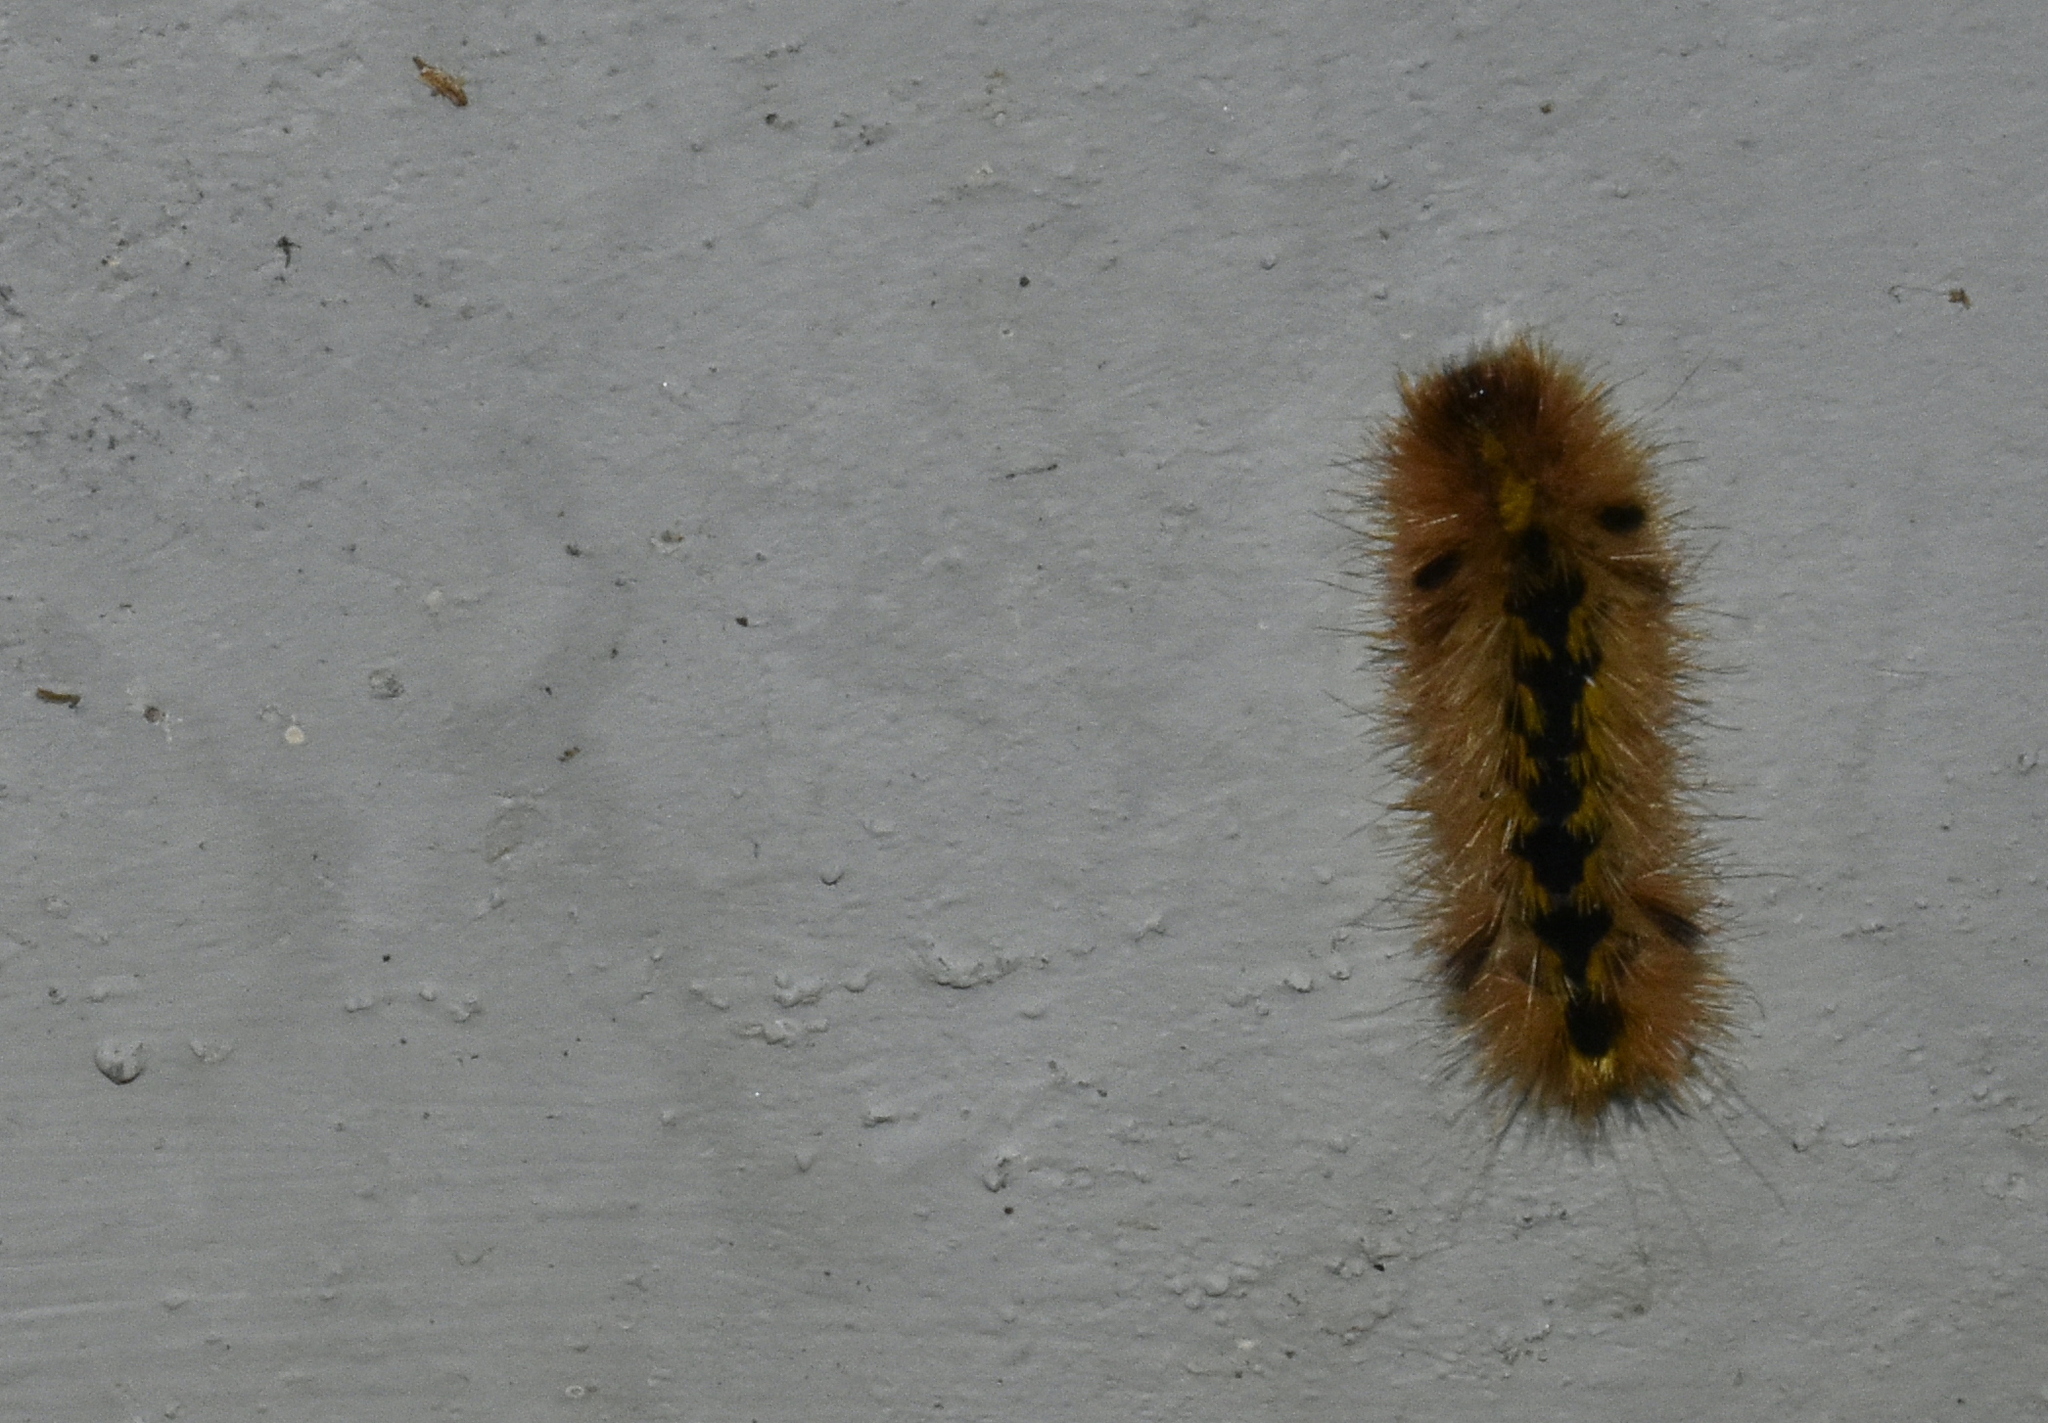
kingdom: Animalia
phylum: Arthropoda
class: Insecta
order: Lepidoptera
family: Erebidae
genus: Lophocampa
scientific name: Lophocampa argentata
